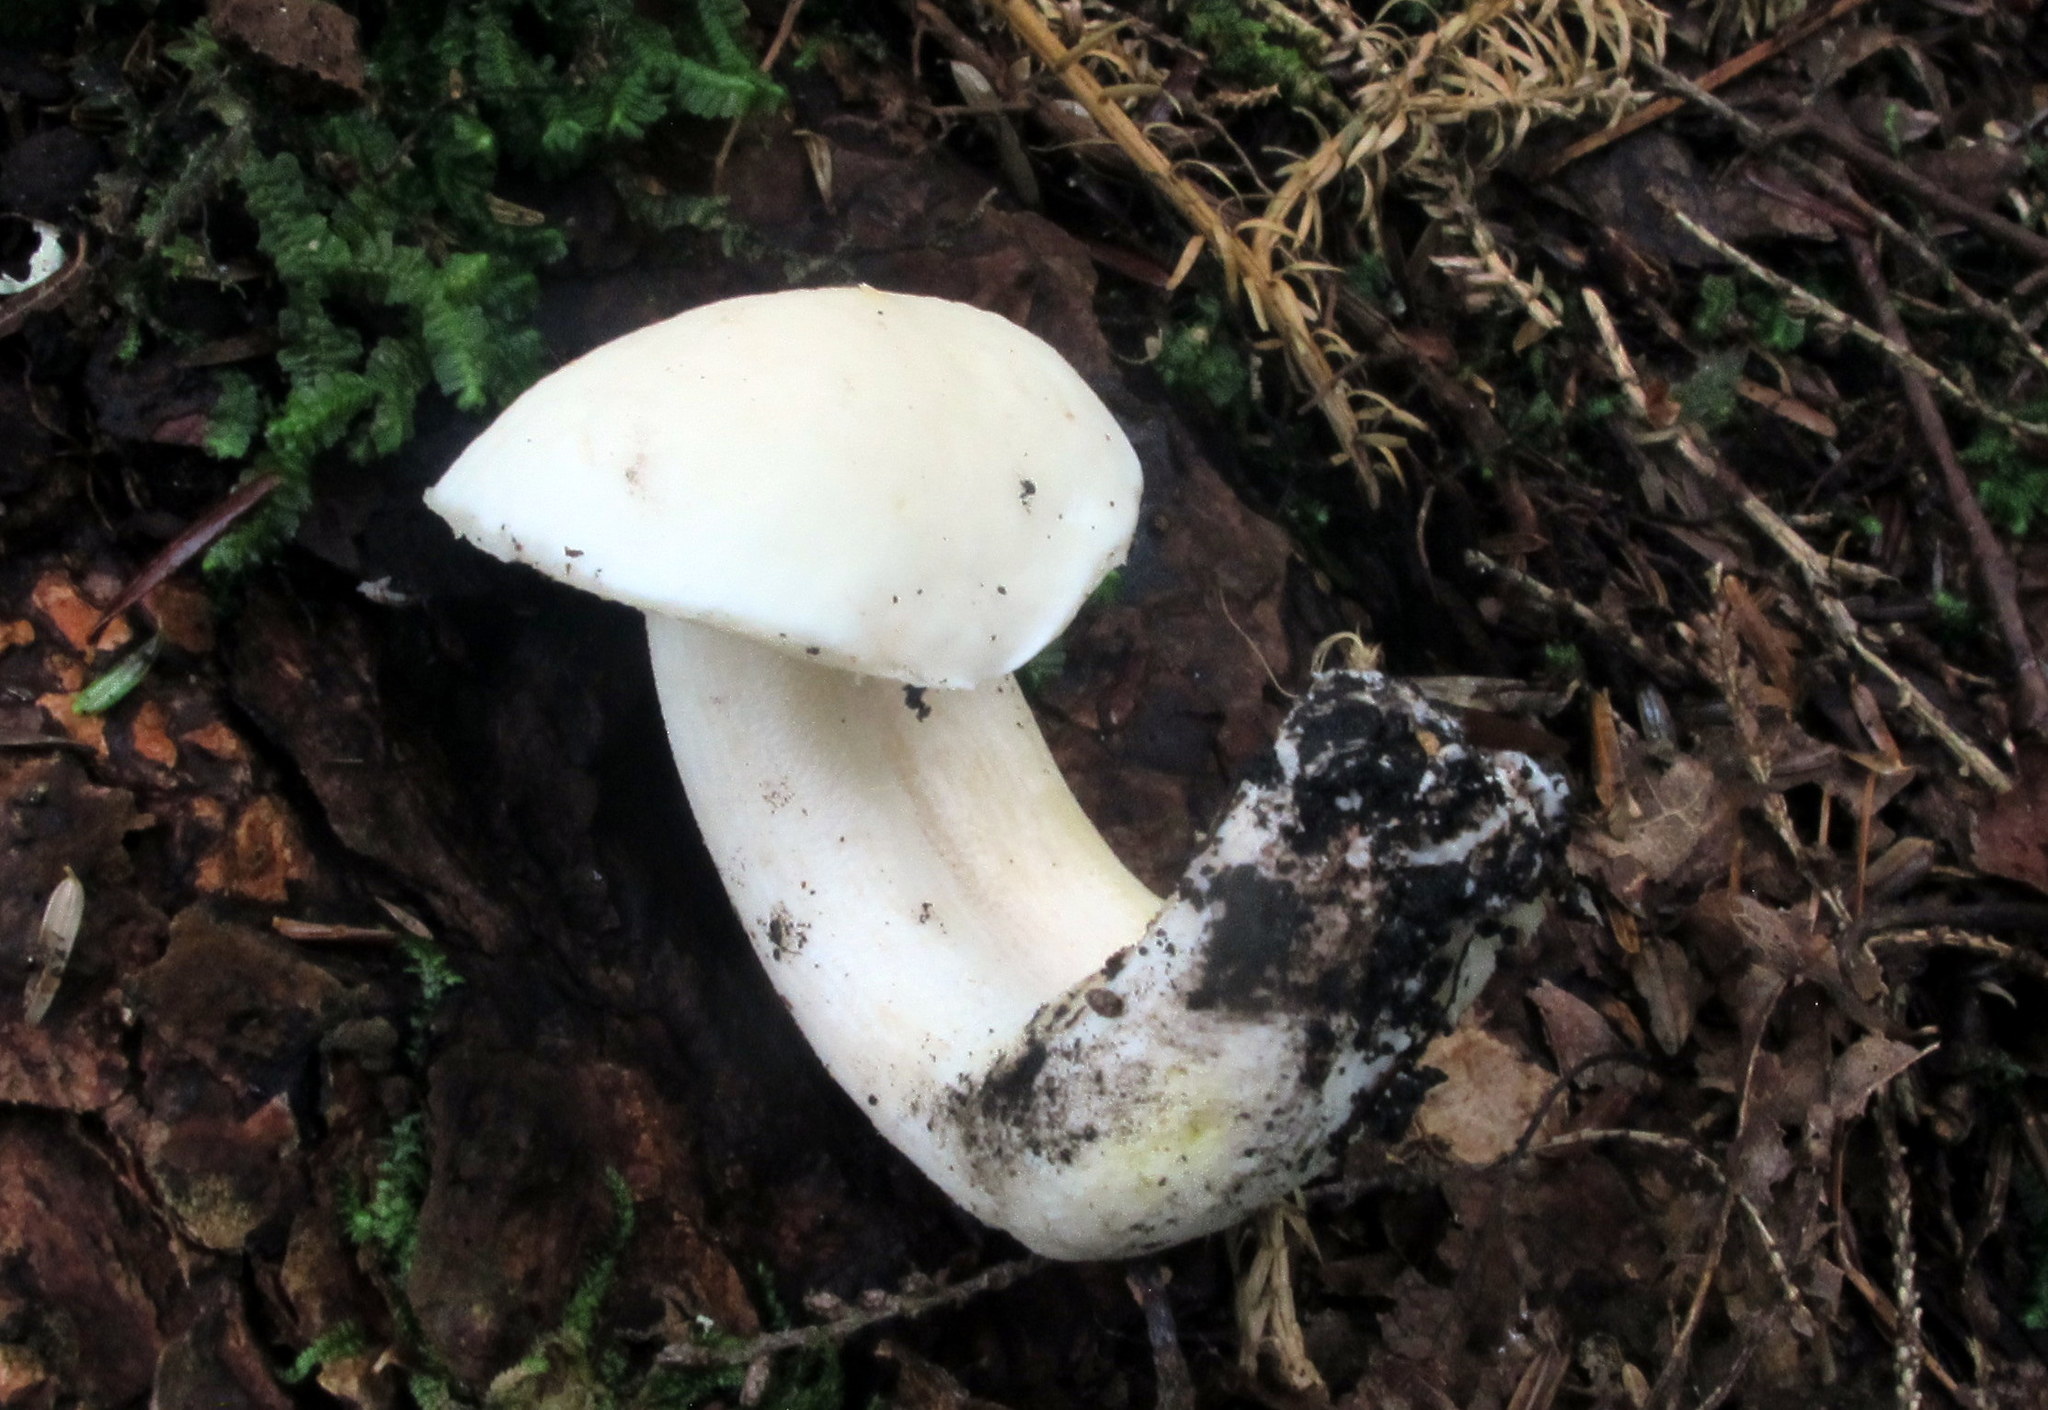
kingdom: Fungi
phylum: Basidiomycota
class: Agaricomycetes
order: Boletales
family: Boletaceae
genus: Tylopilus
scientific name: Tylopilus intermedius
